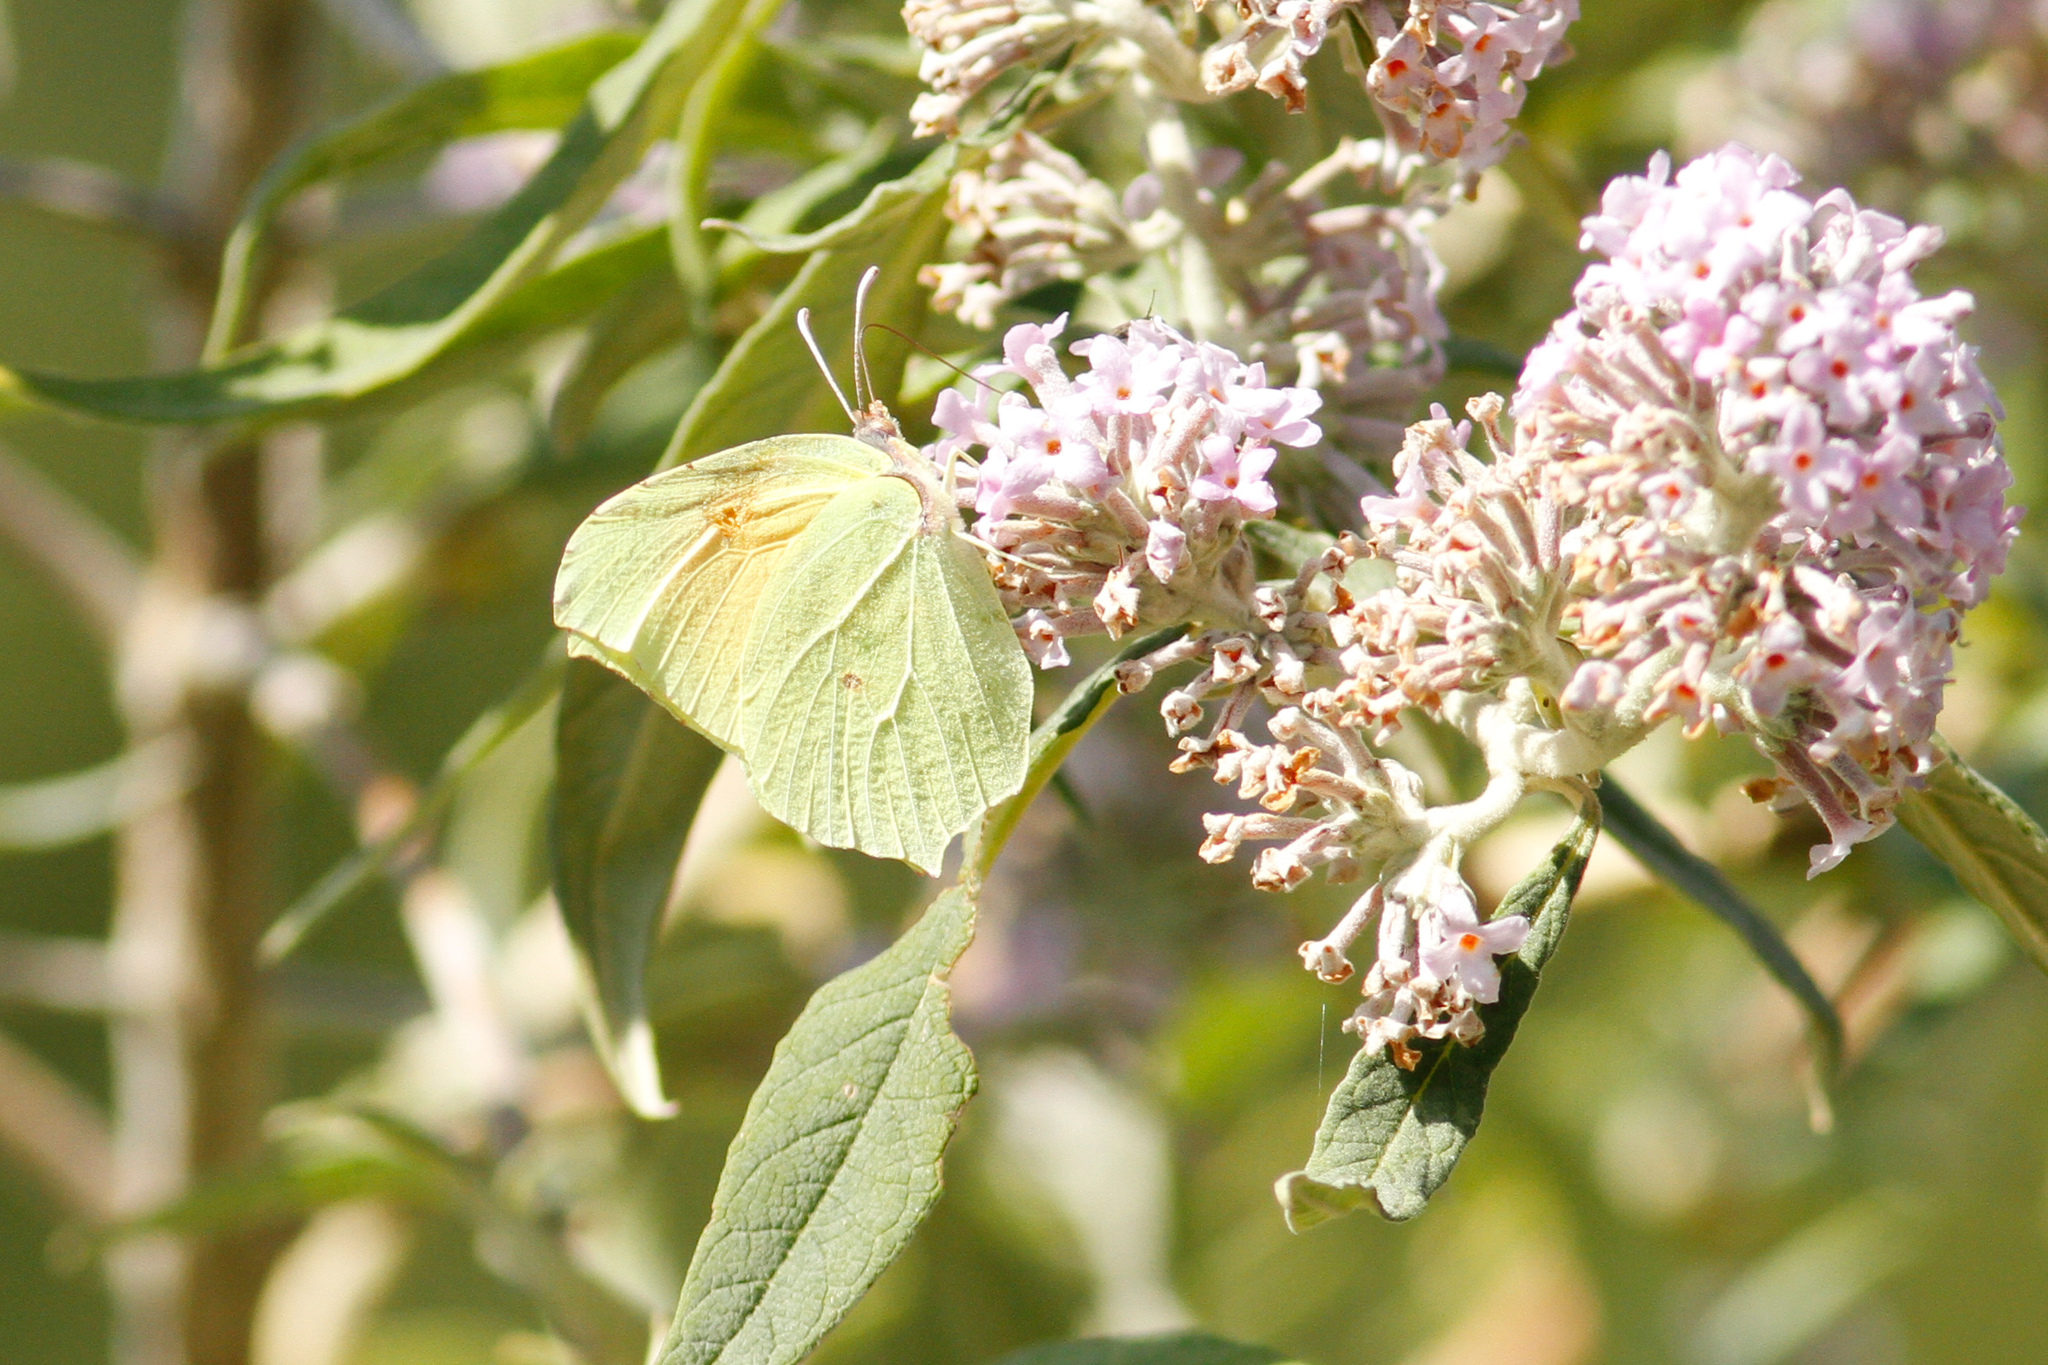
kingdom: Animalia
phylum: Arthropoda
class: Insecta
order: Lepidoptera
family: Pieridae
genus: Gonepteryx
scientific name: Gonepteryx cleopatra
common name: Cleopatra
